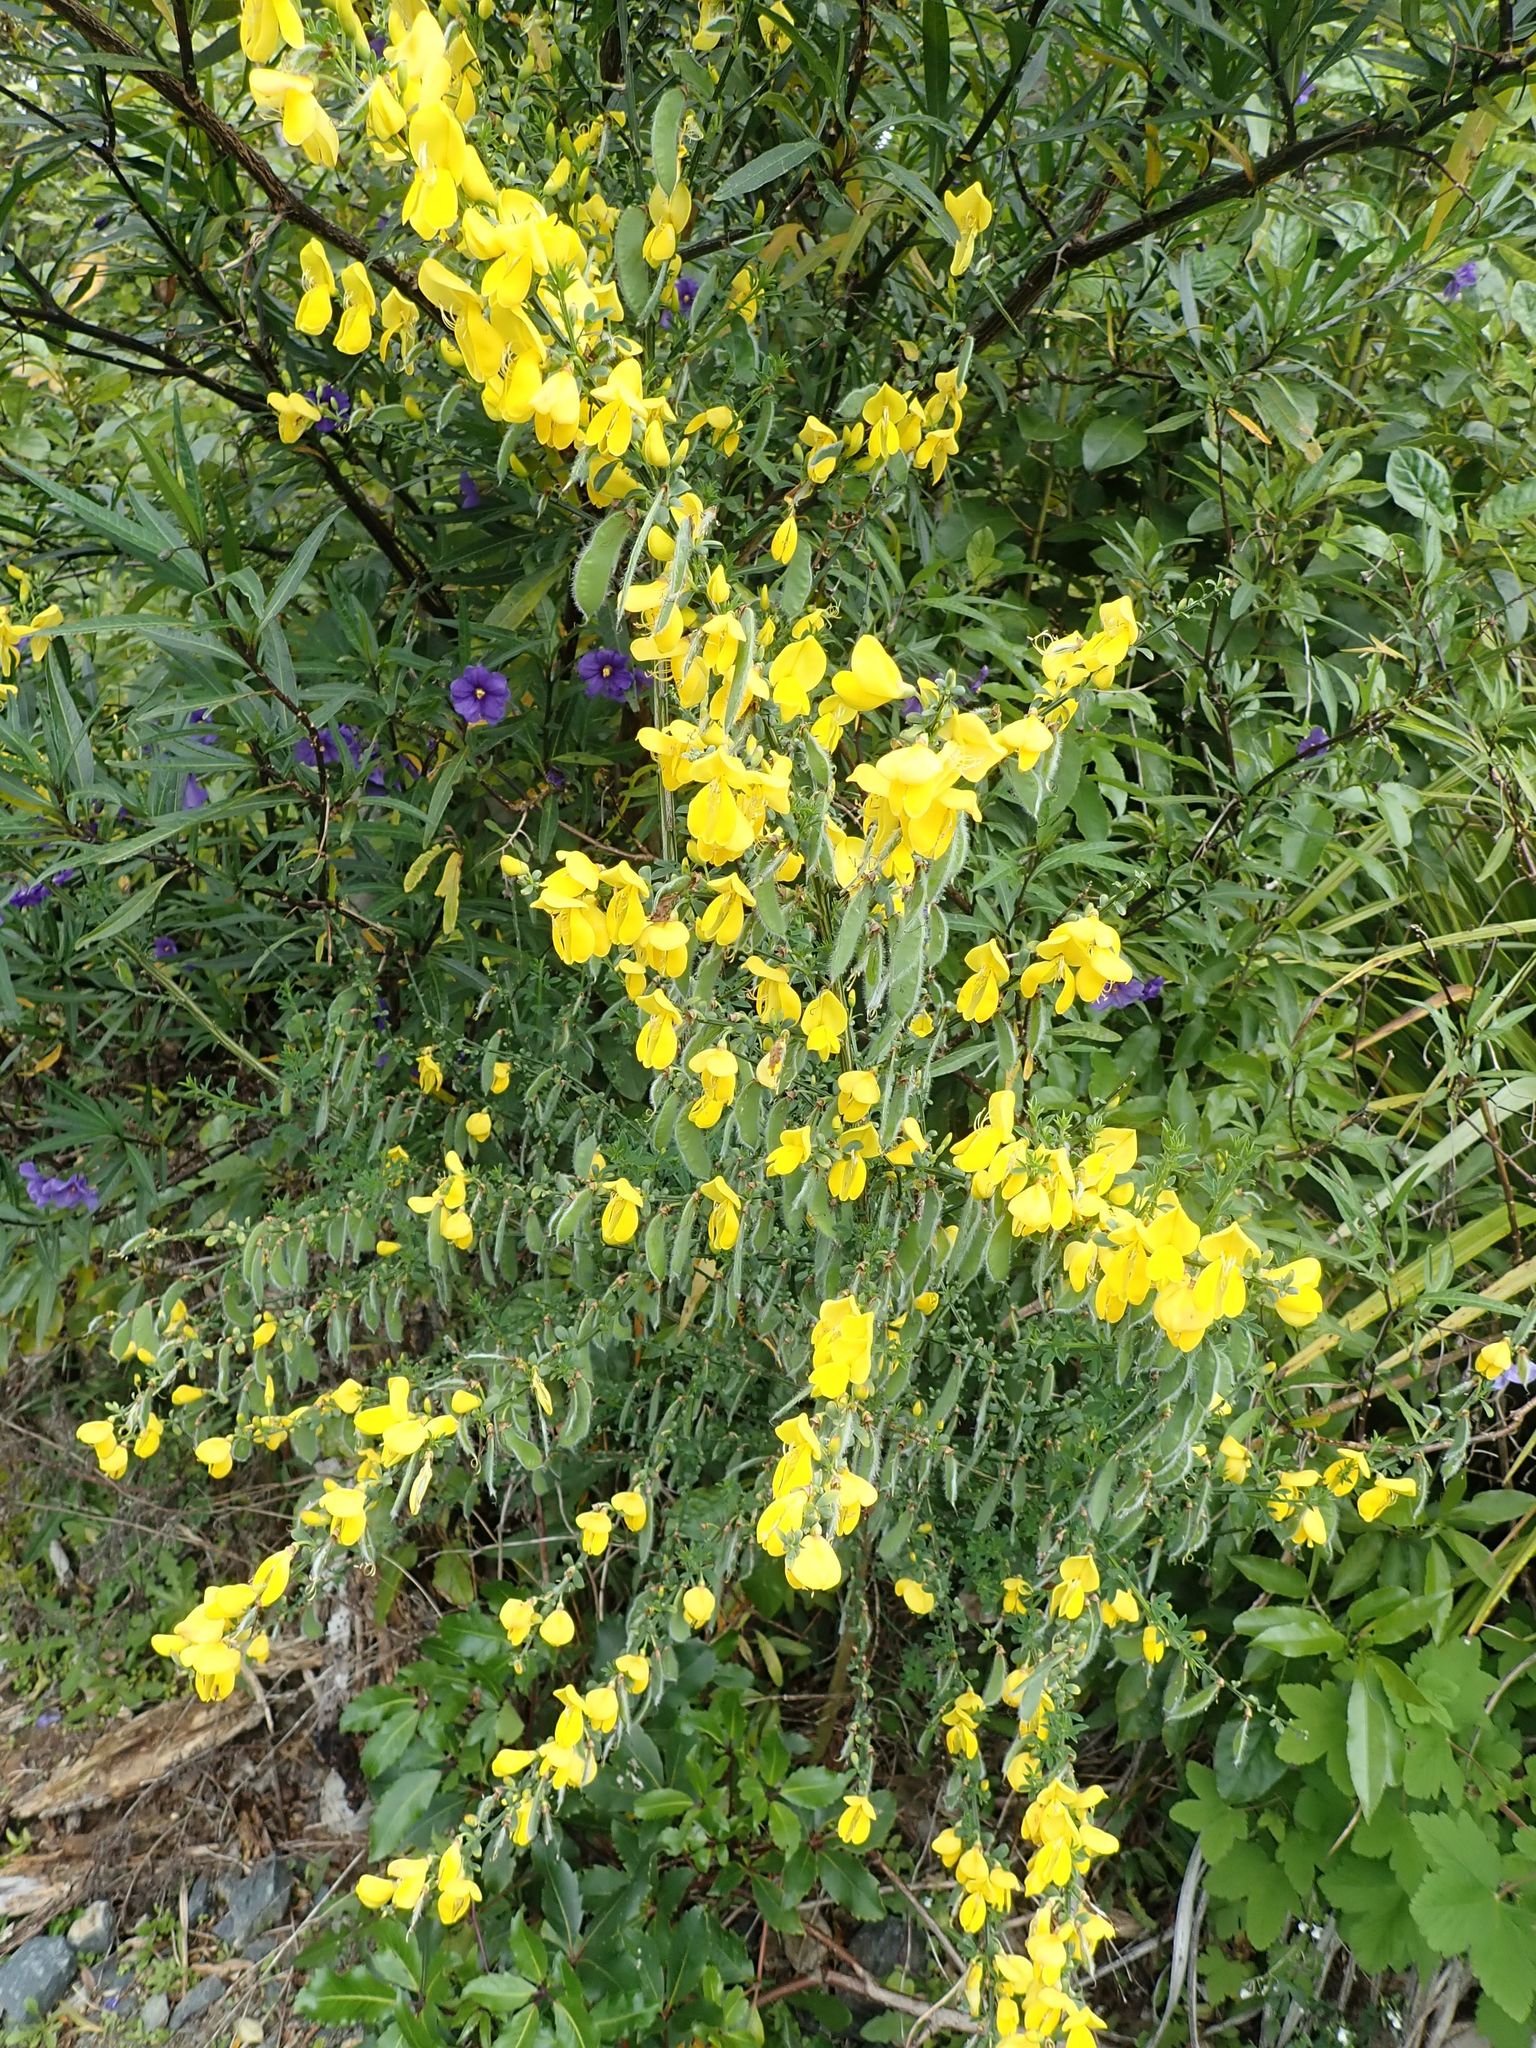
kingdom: Plantae
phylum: Tracheophyta
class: Magnoliopsida
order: Fabales
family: Fabaceae
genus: Cytisus
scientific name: Cytisus scoparius
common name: Scotch broom
